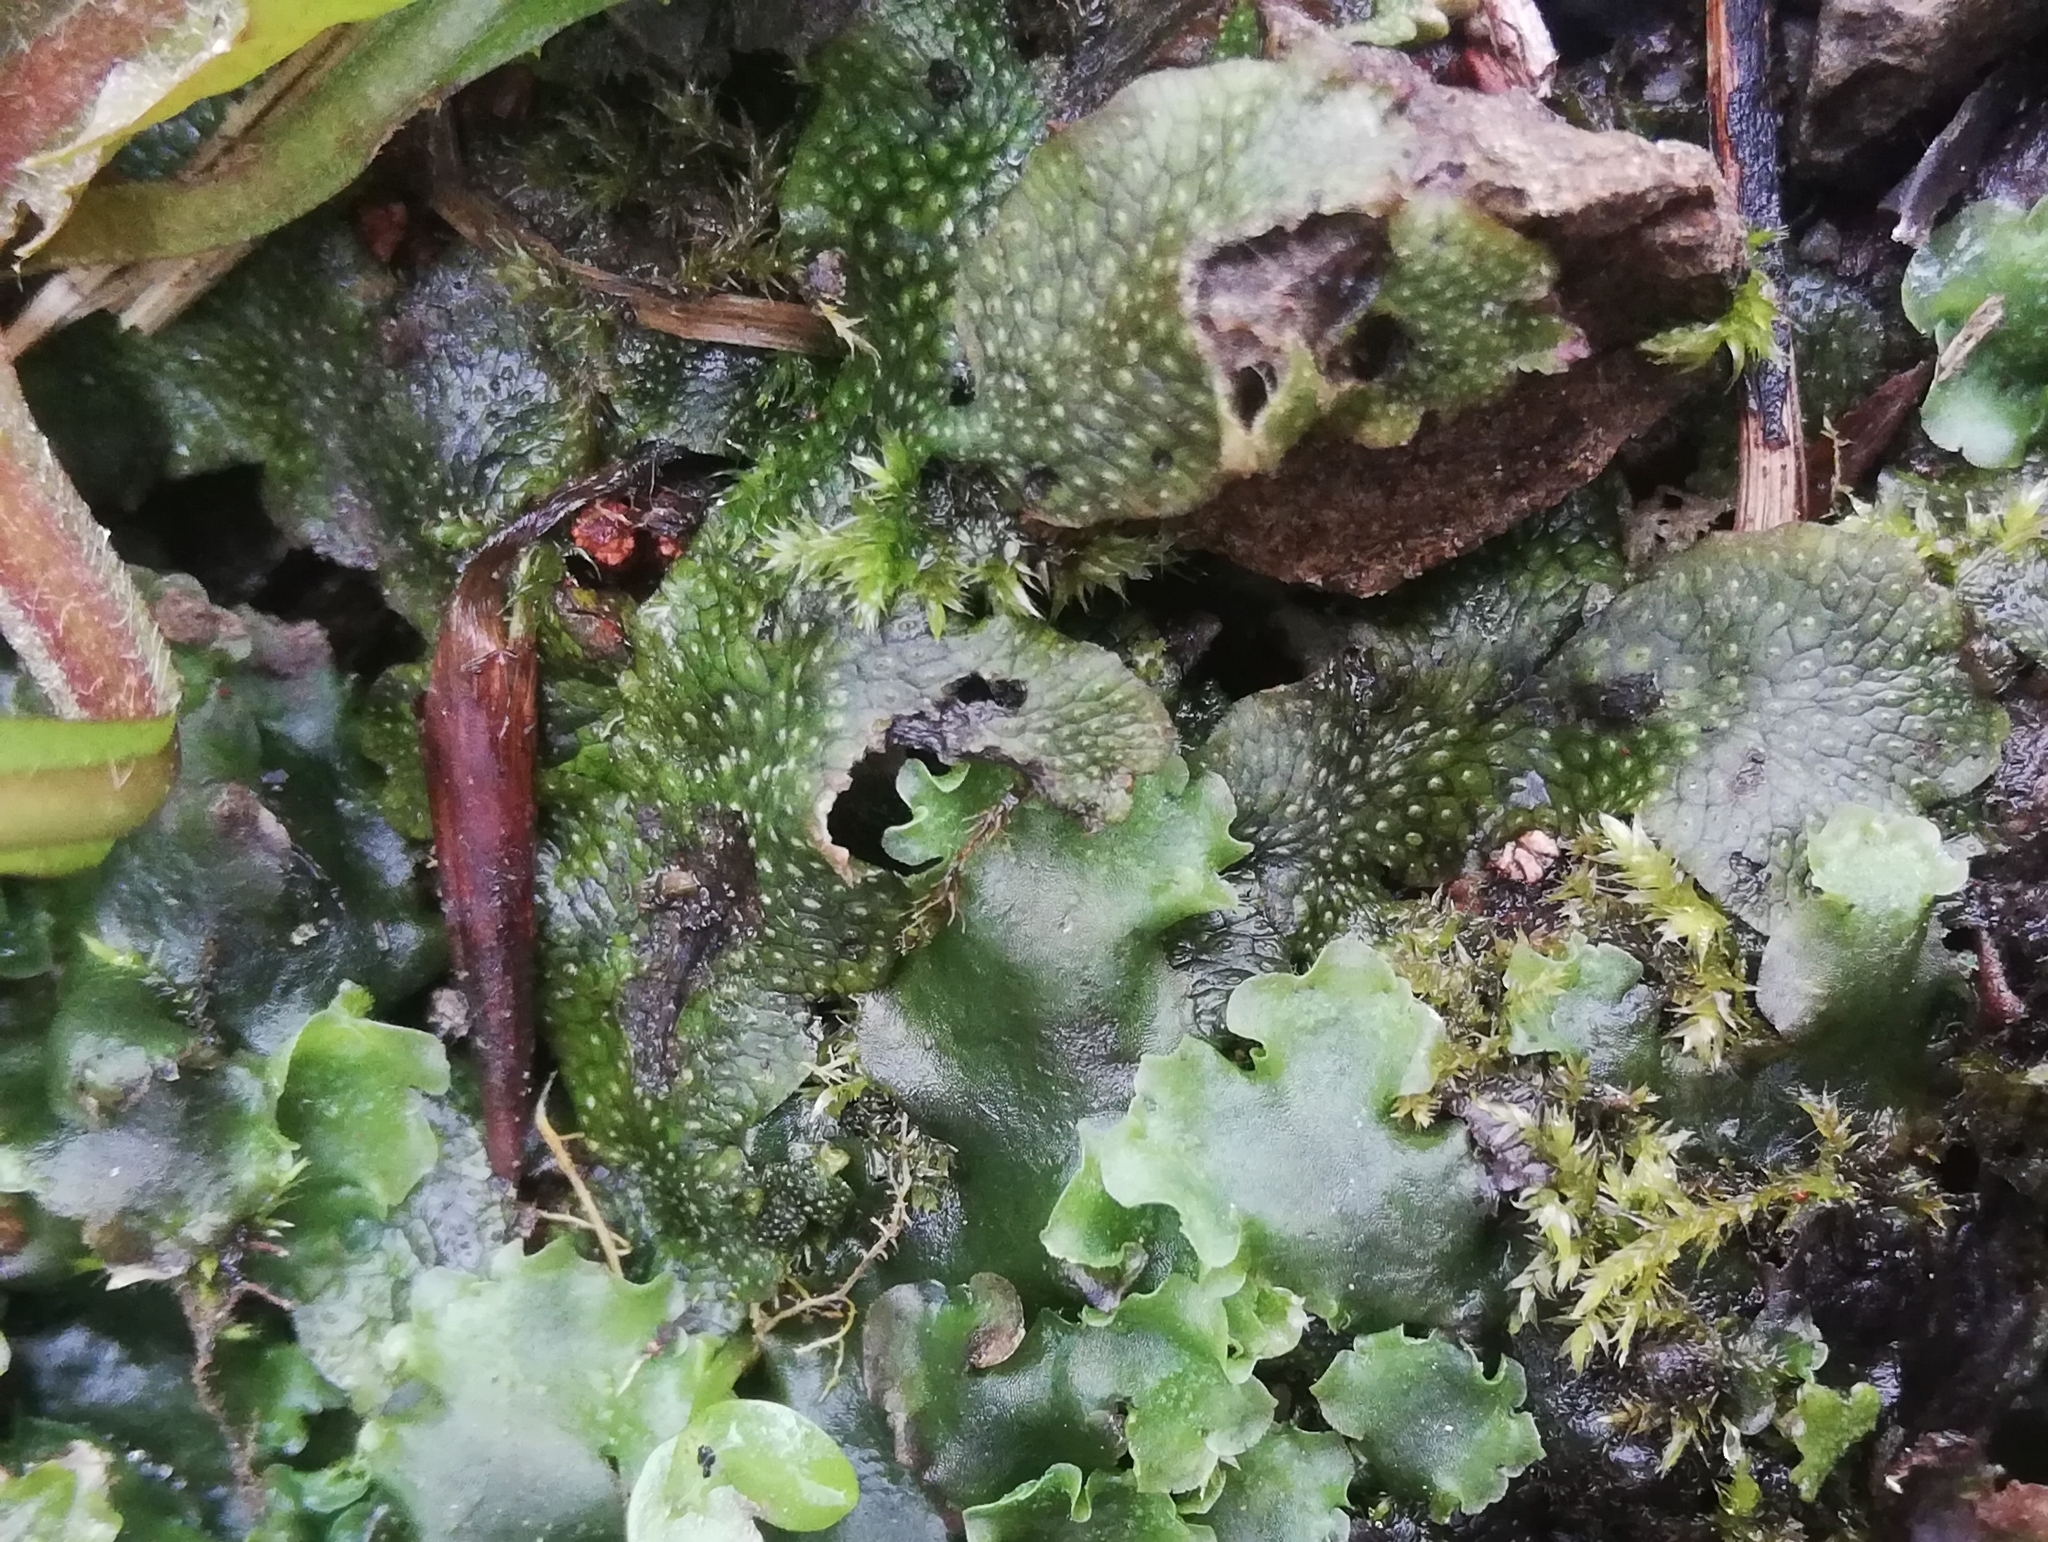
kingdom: Plantae
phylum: Marchantiophyta
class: Marchantiopsida
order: Marchantiales
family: Conocephalaceae
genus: Conocephalum
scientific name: Conocephalum salebrosum
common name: Cat-tongue liverwort
